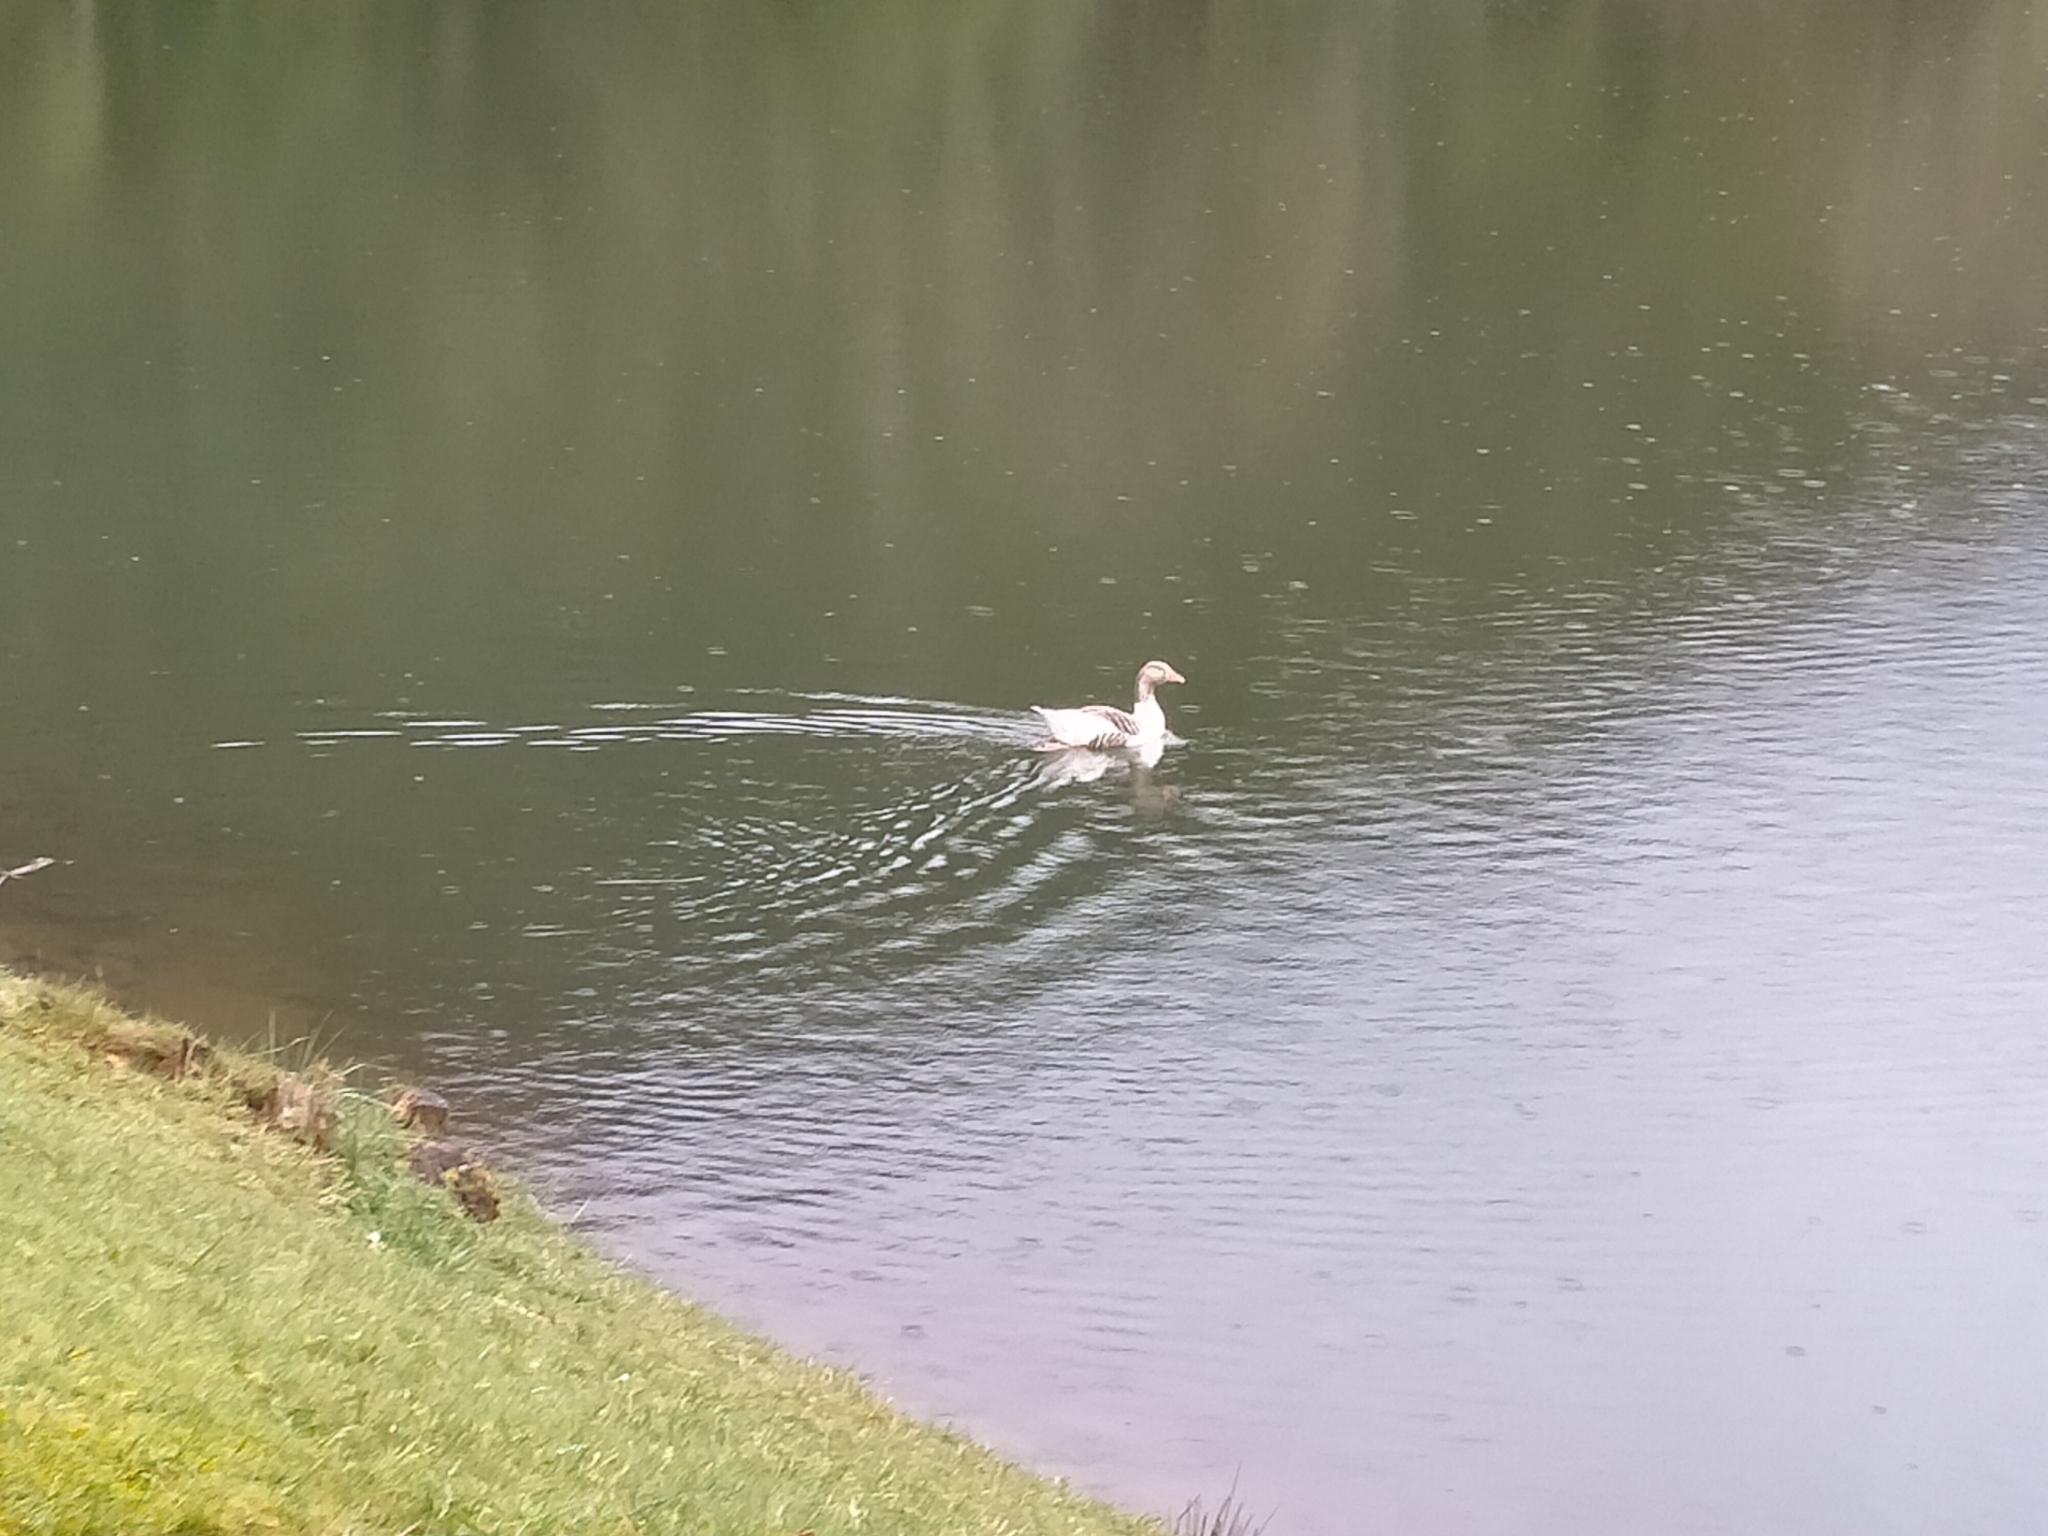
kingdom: Animalia
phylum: Chordata
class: Aves
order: Anseriformes
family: Anatidae
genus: Anser
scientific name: Anser anser
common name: Greylag goose
